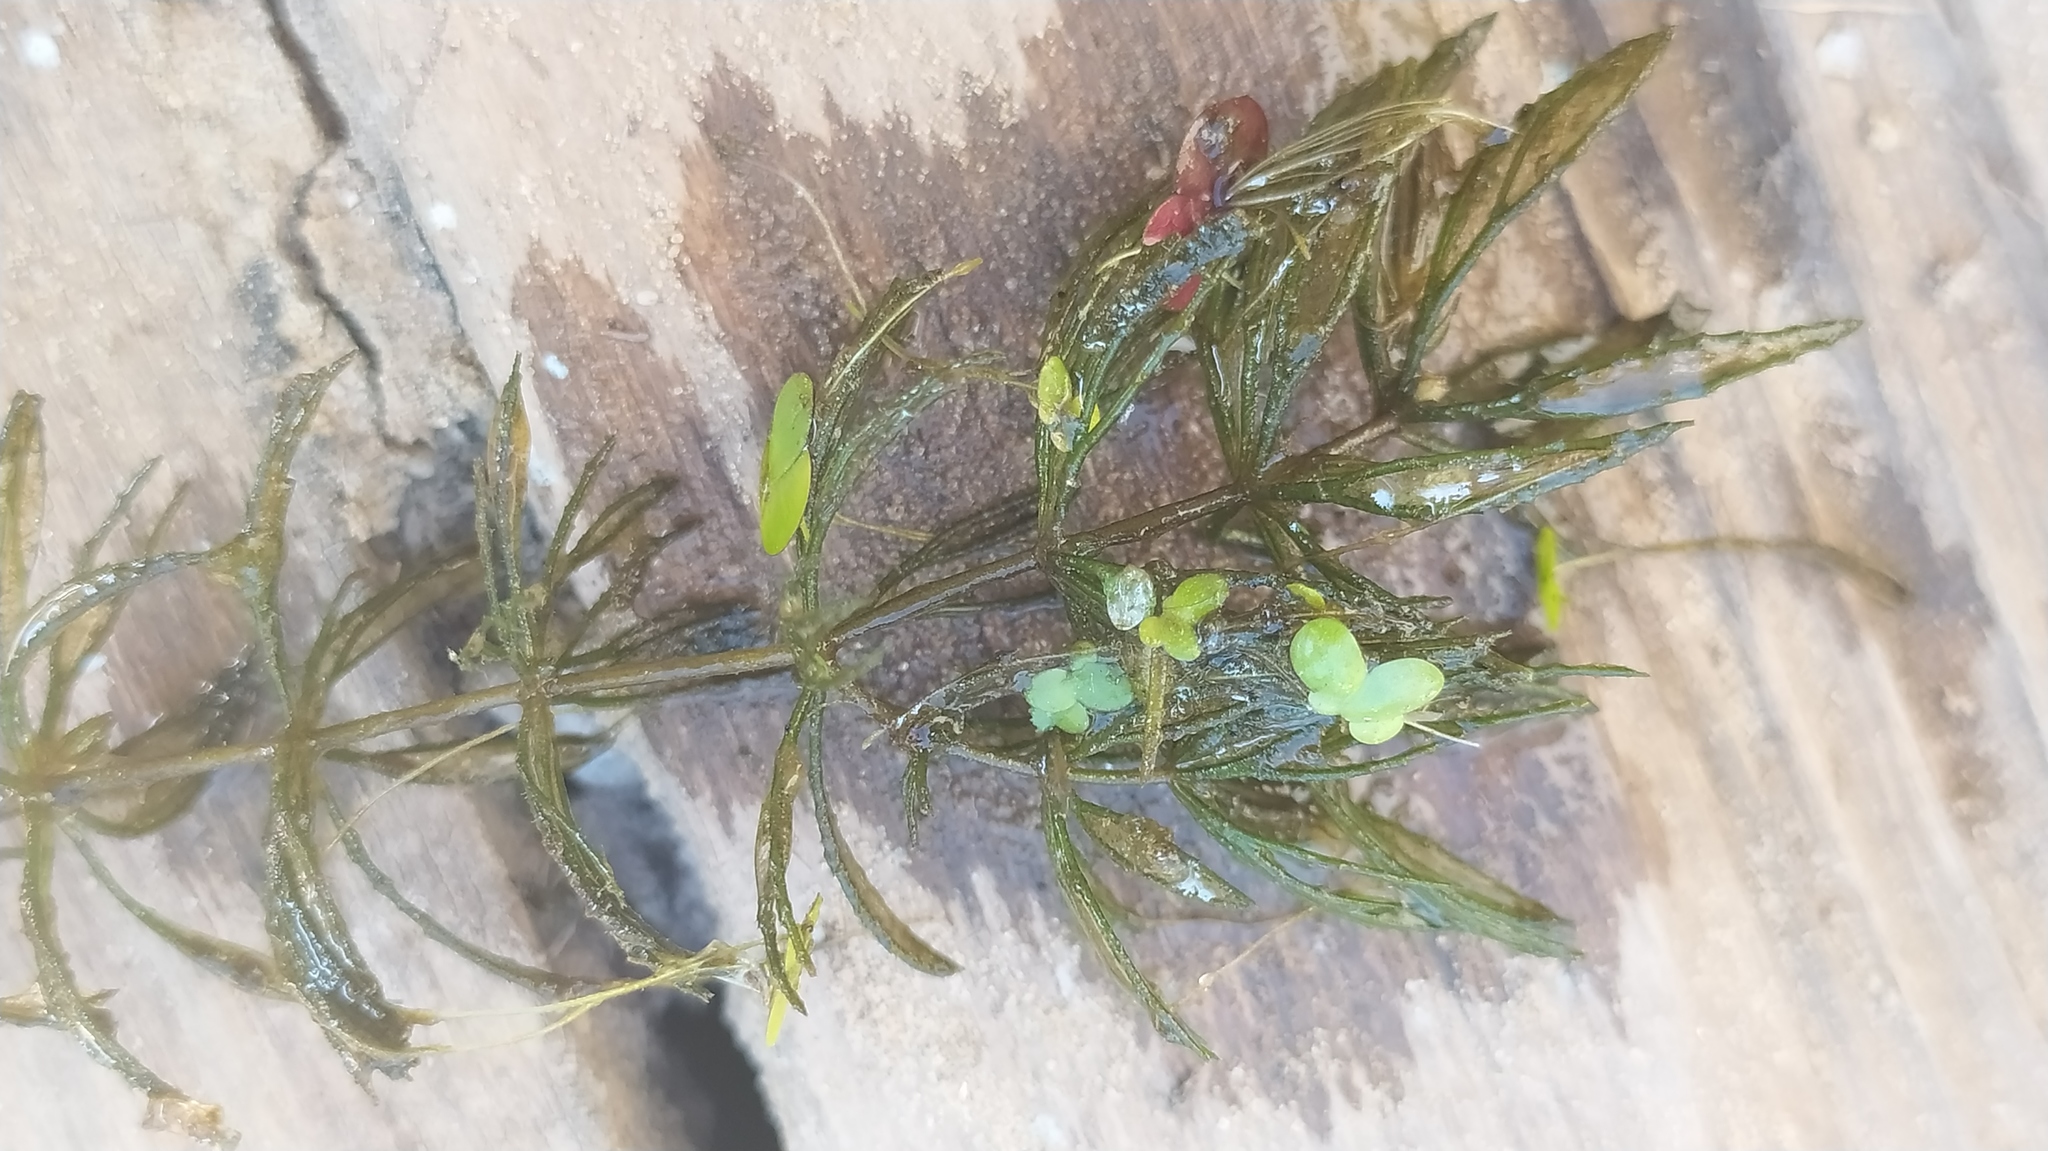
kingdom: Plantae
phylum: Tracheophyta
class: Magnoliopsida
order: Ceratophyllales
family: Ceratophyllaceae
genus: Ceratophyllum
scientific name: Ceratophyllum demersum
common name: Rigid hornwort
